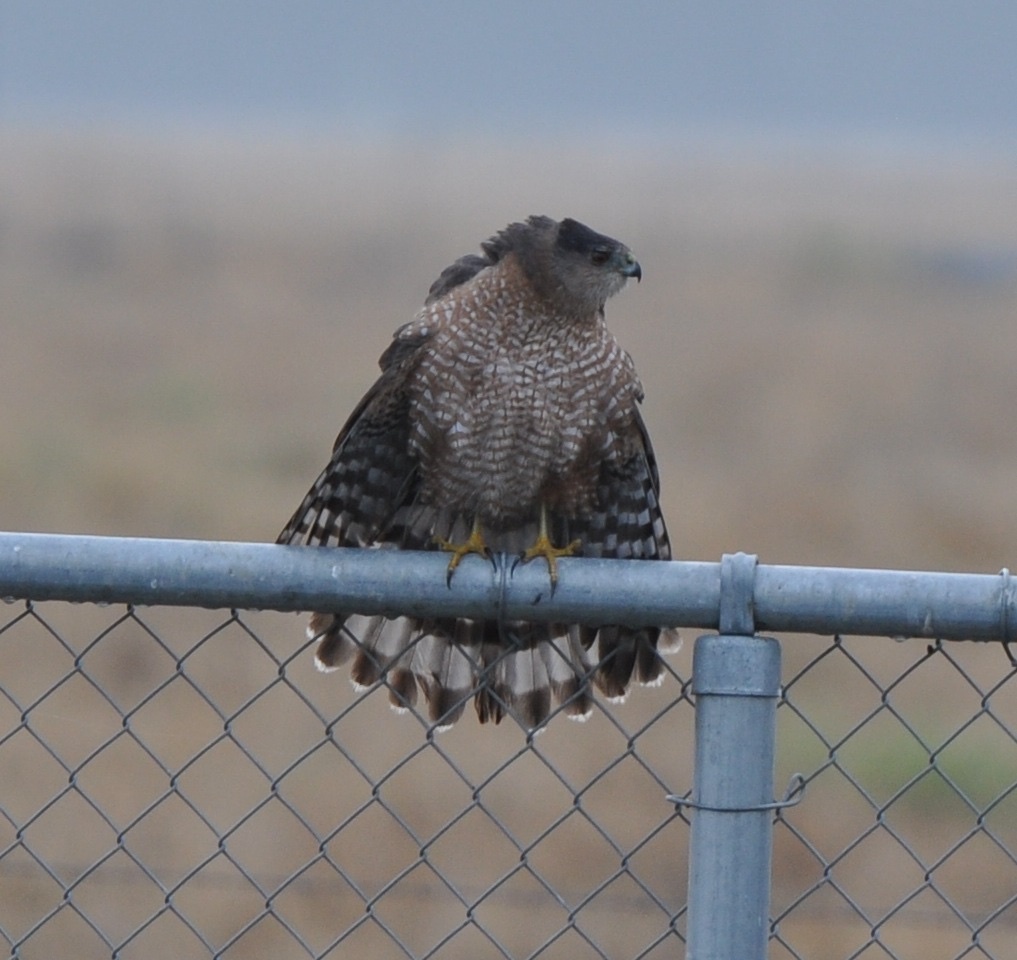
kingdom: Animalia
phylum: Chordata
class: Aves
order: Accipitriformes
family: Accipitridae
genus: Accipiter
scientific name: Accipiter cooperii
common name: Cooper's hawk
